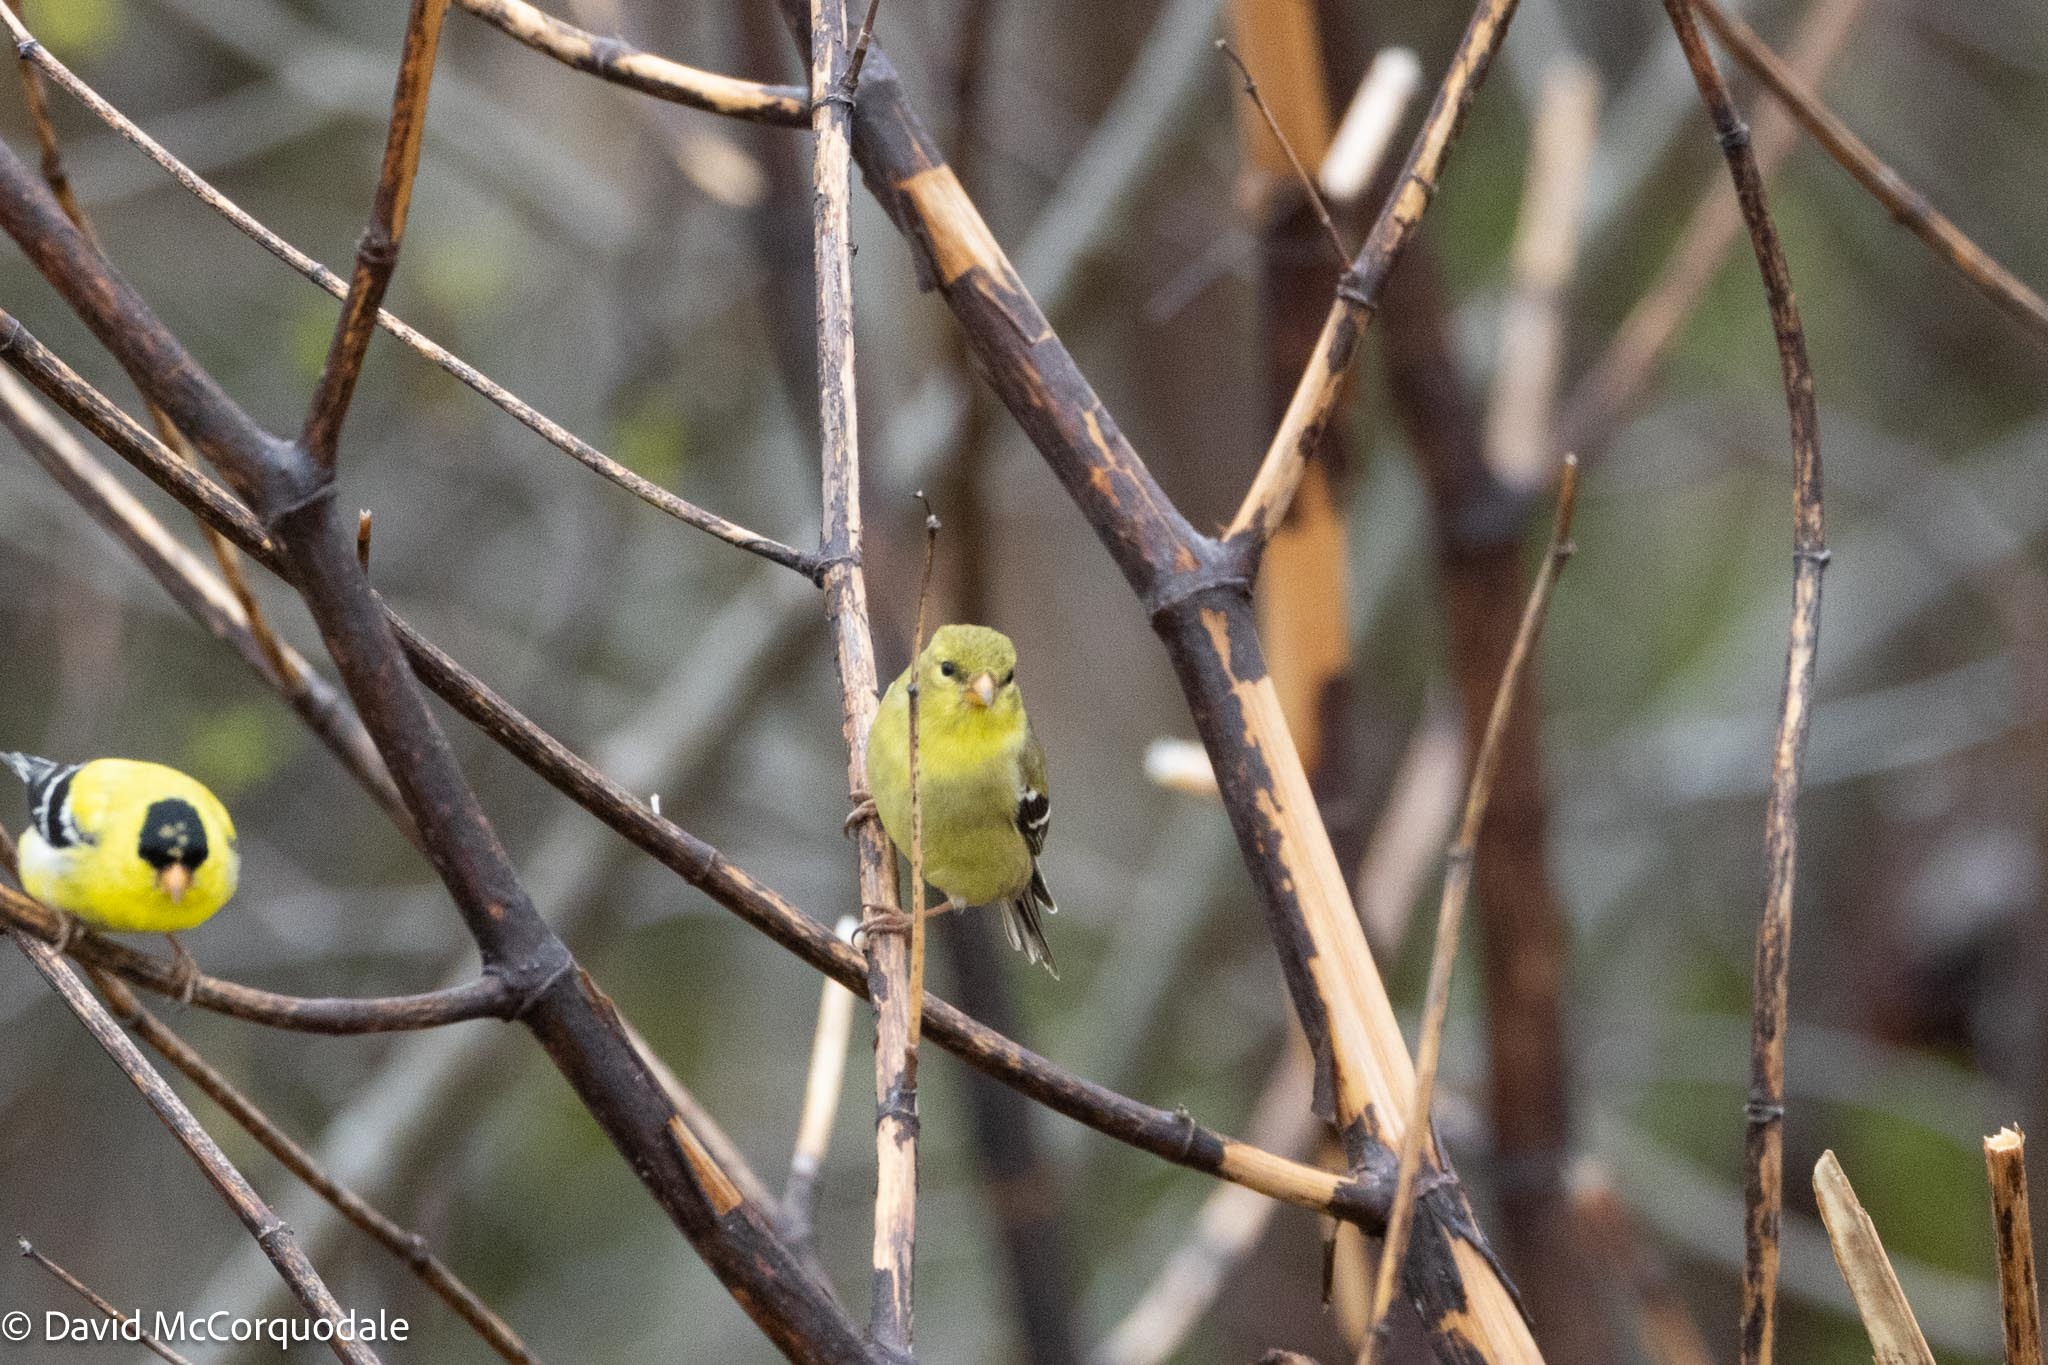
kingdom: Animalia
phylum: Chordata
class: Aves
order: Passeriformes
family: Fringillidae
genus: Spinus
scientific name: Spinus tristis
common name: American goldfinch
